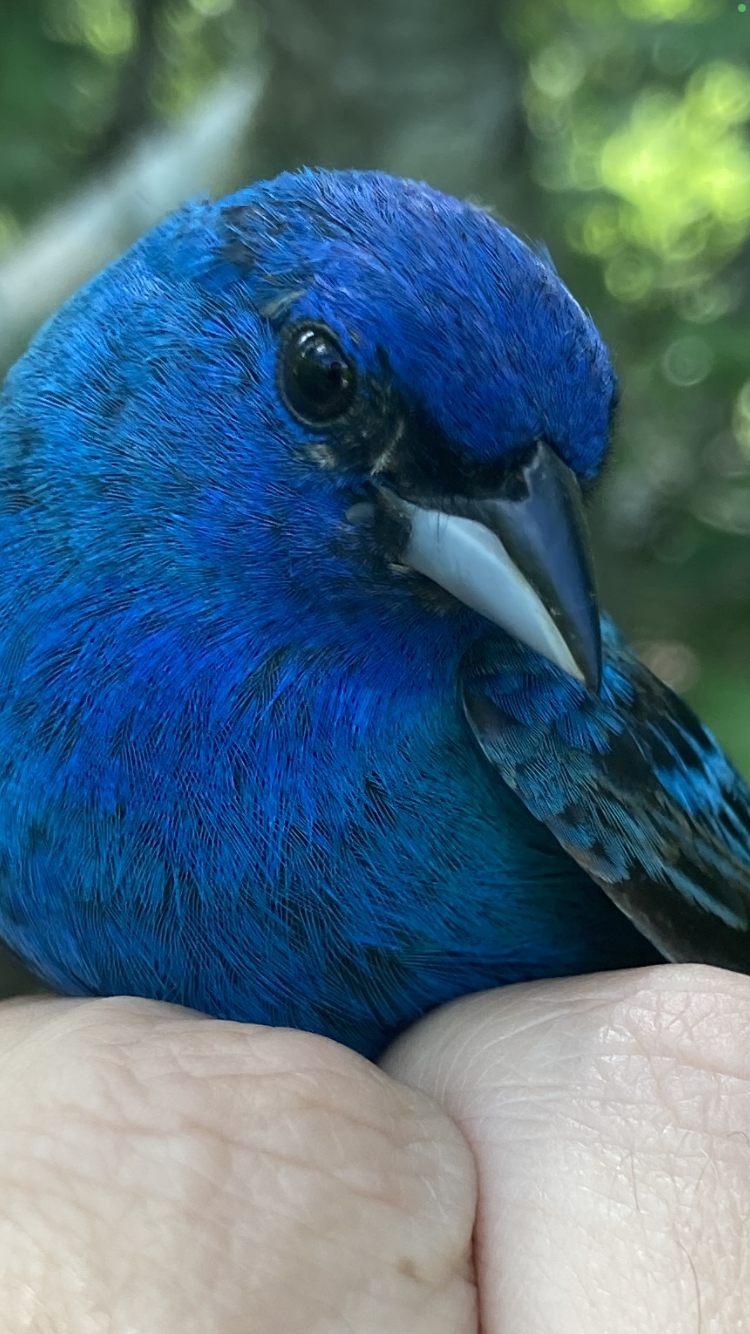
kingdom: Animalia
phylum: Chordata
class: Aves
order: Passeriformes
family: Cardinalidae
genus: Passerina
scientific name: Passerina cyanea
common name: Indigo bunting
